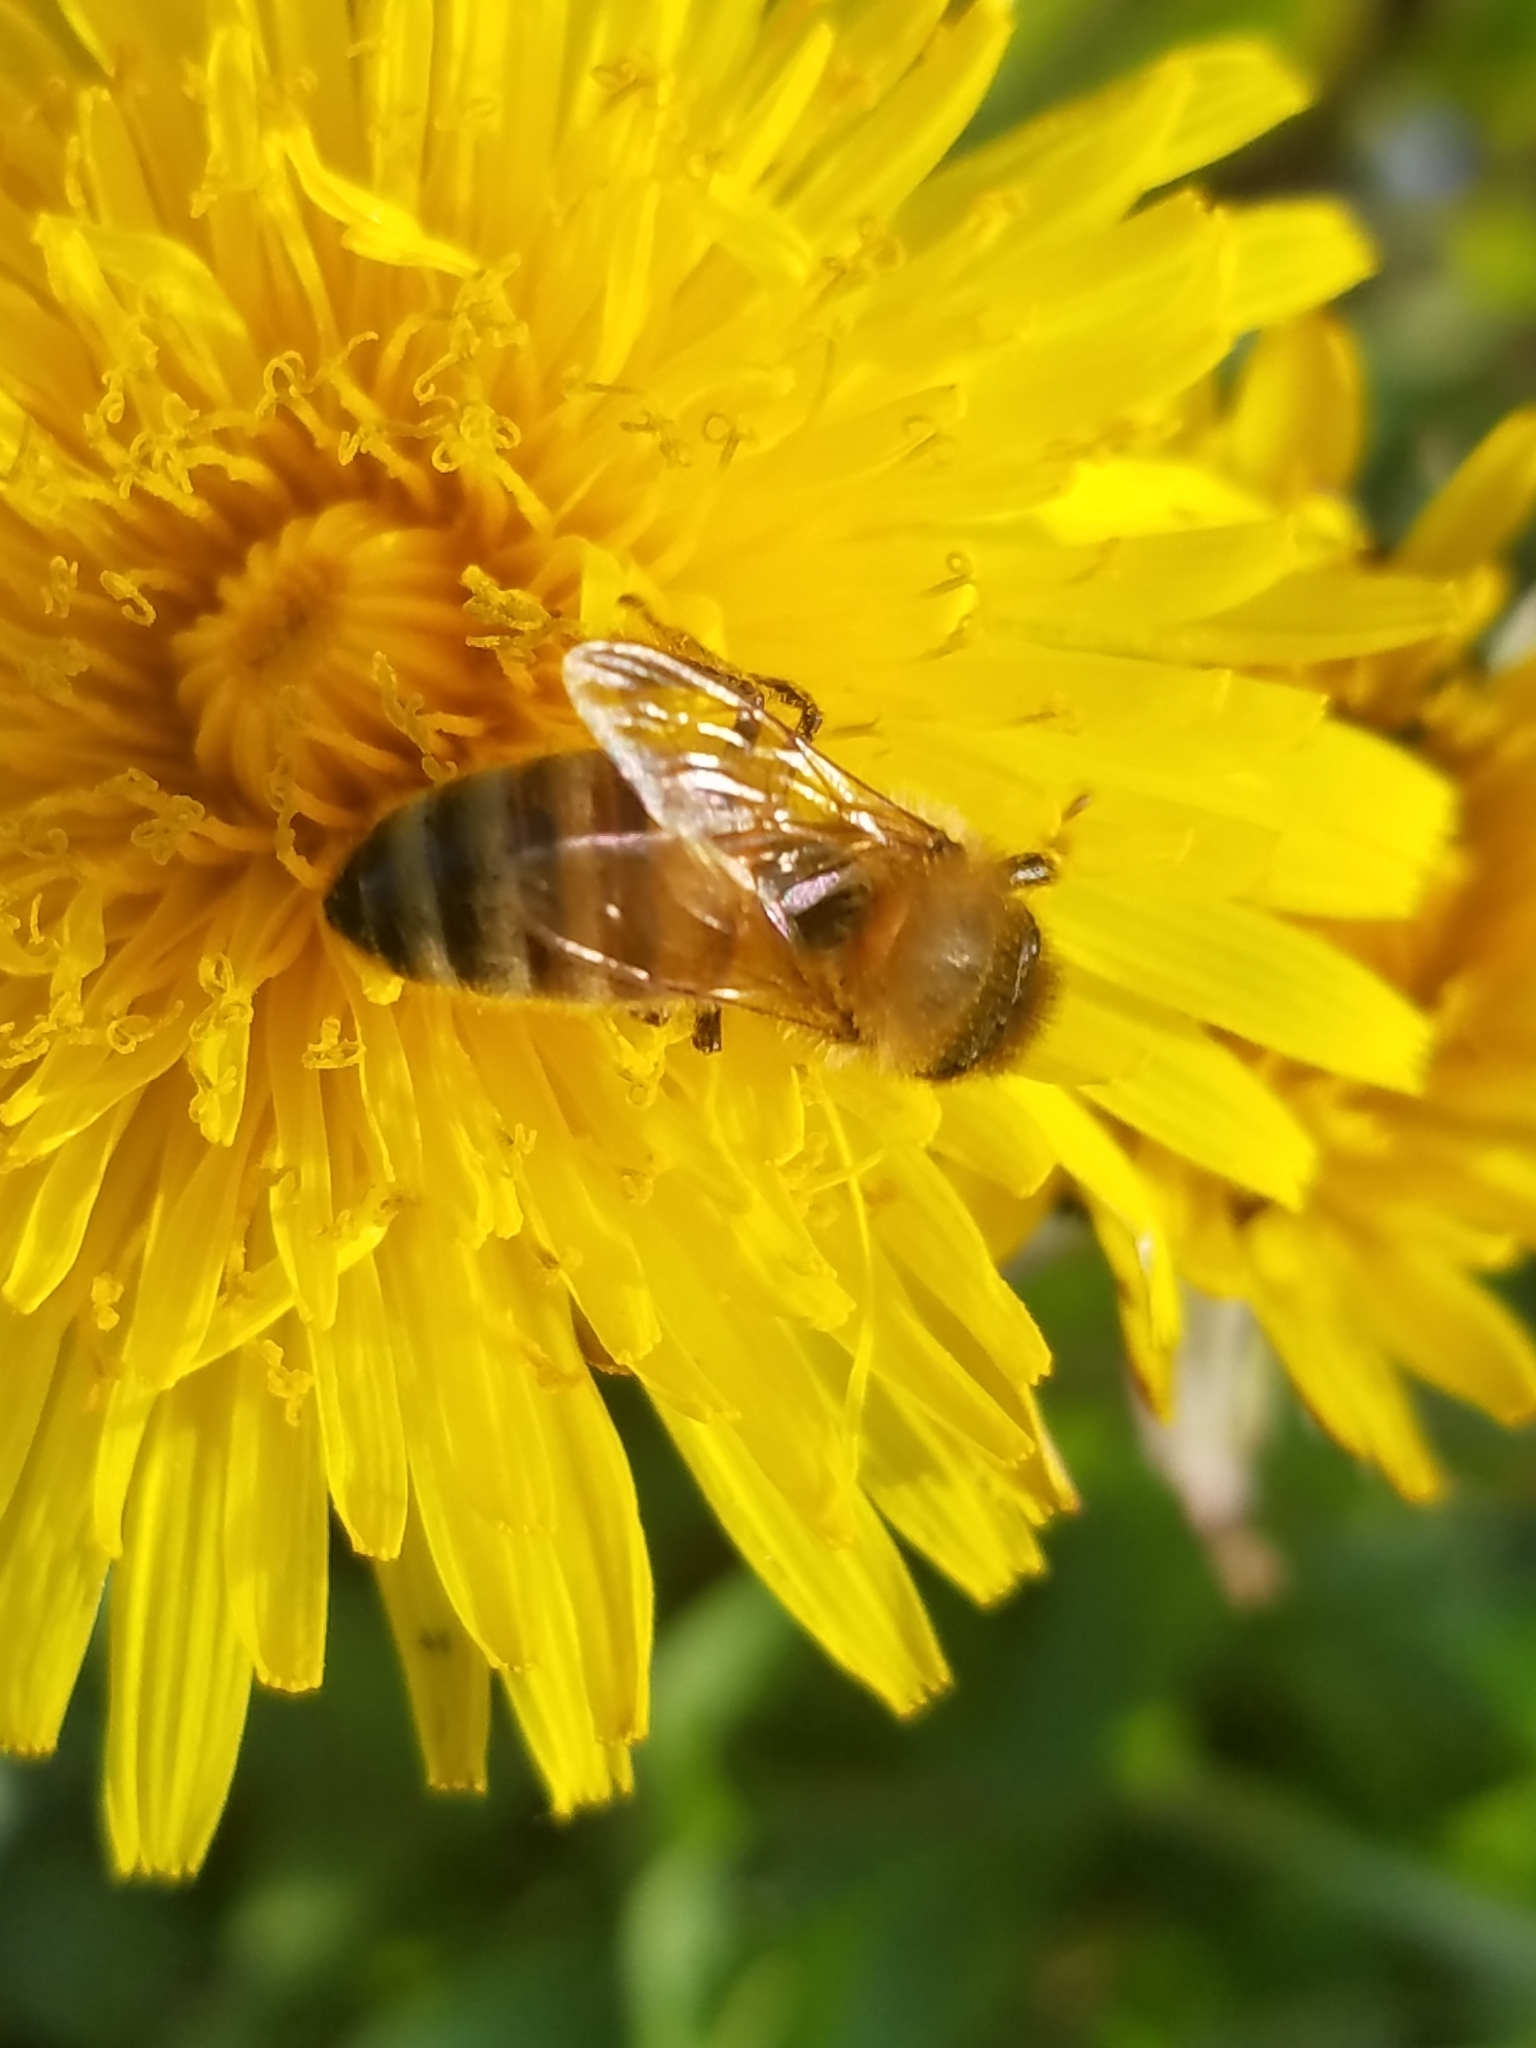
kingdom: Animalia
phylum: Arthropoda
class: Insecta
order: Hymenoptera
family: Apidae
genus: Apis
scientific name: Apis mellifera
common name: Honey bee
